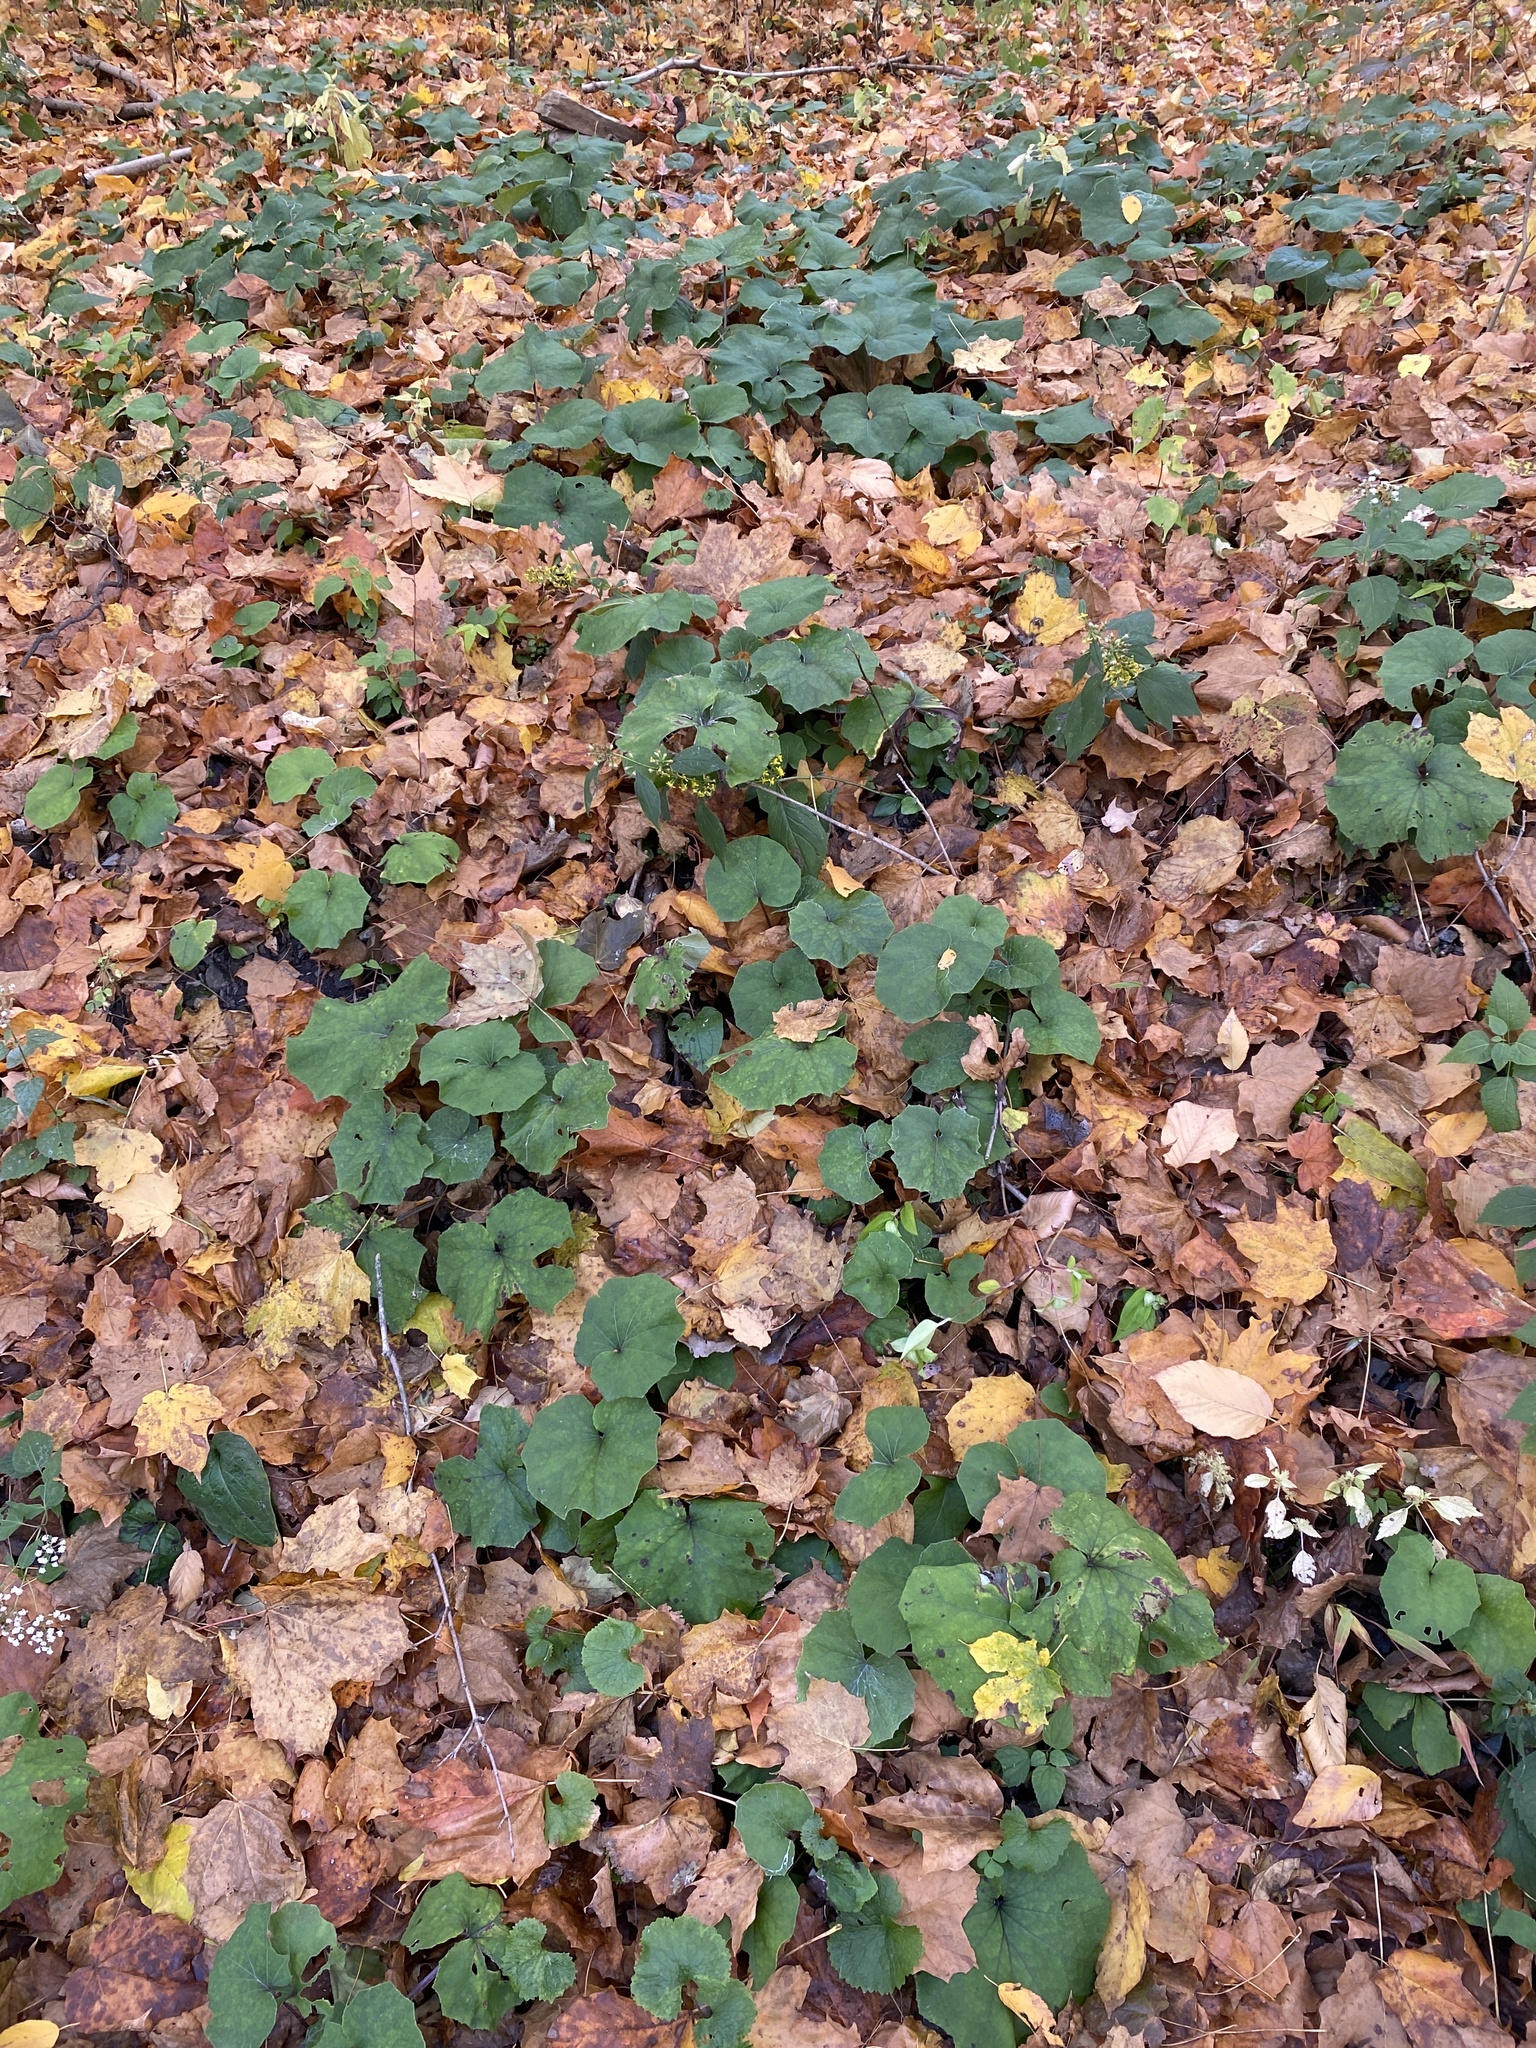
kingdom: Plantae
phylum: Tracheophyta
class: Magnoliopsida
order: Asterales
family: Asteraceae
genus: Tussilago
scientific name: Tussilago farfara
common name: Coltsfoot
